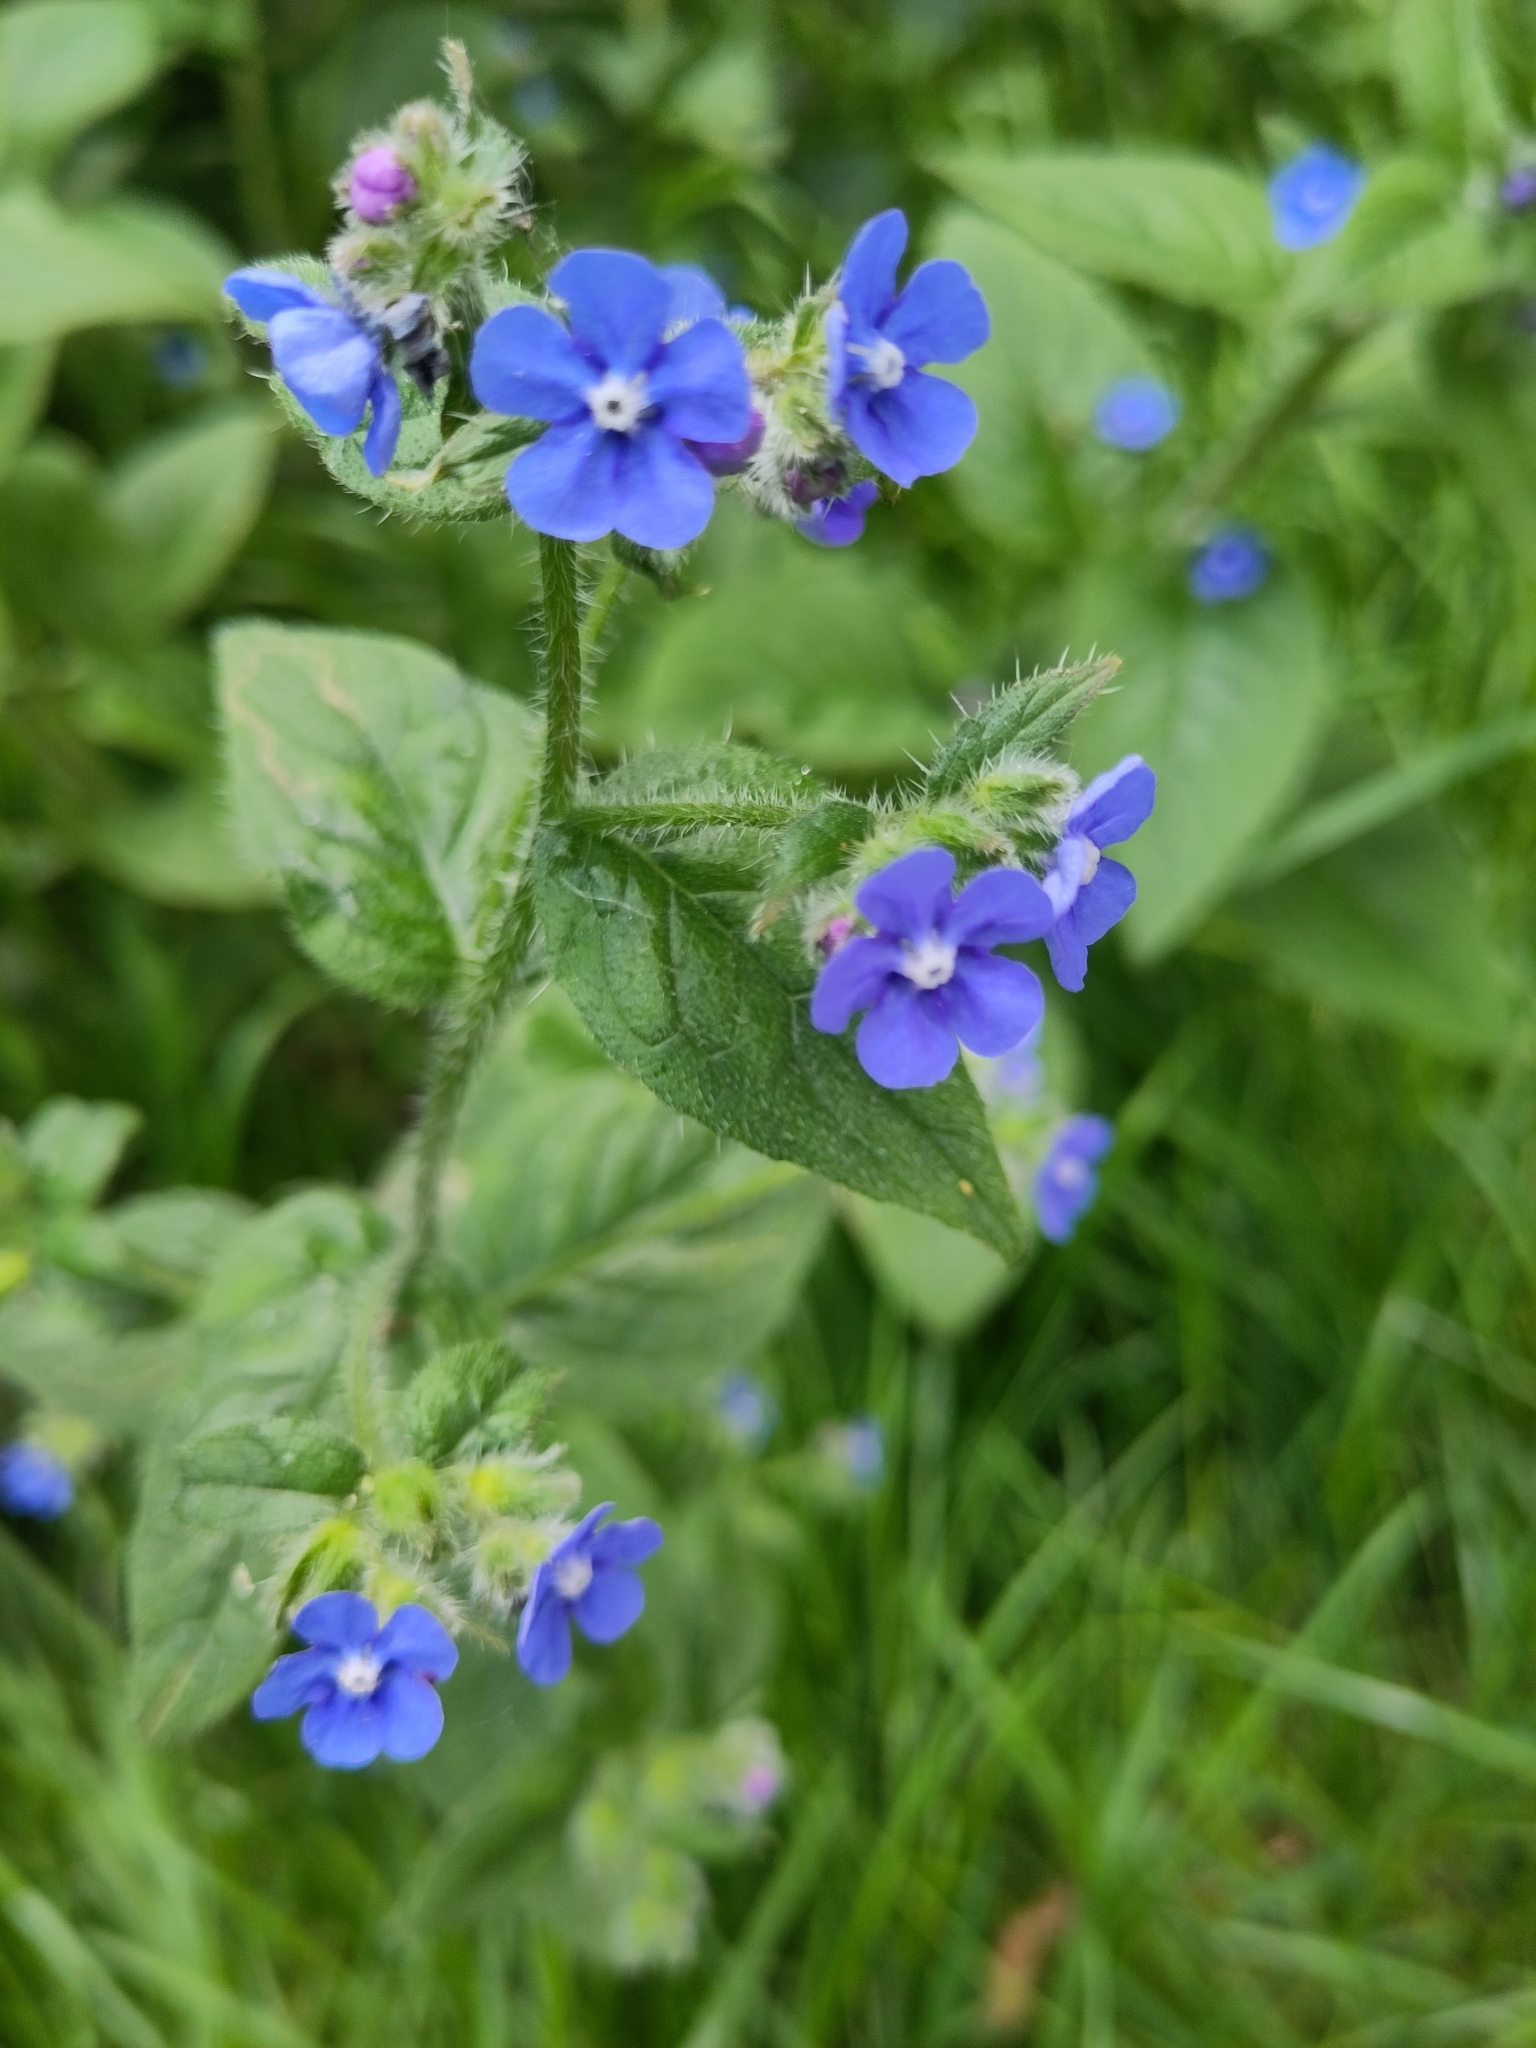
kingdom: Plantae
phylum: Tracheophyta
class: Magnoliopsida
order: Boraginales
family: Boraginaceae
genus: Pentaglottis
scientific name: Pentaglottis sempervirens
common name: Green alkanet
